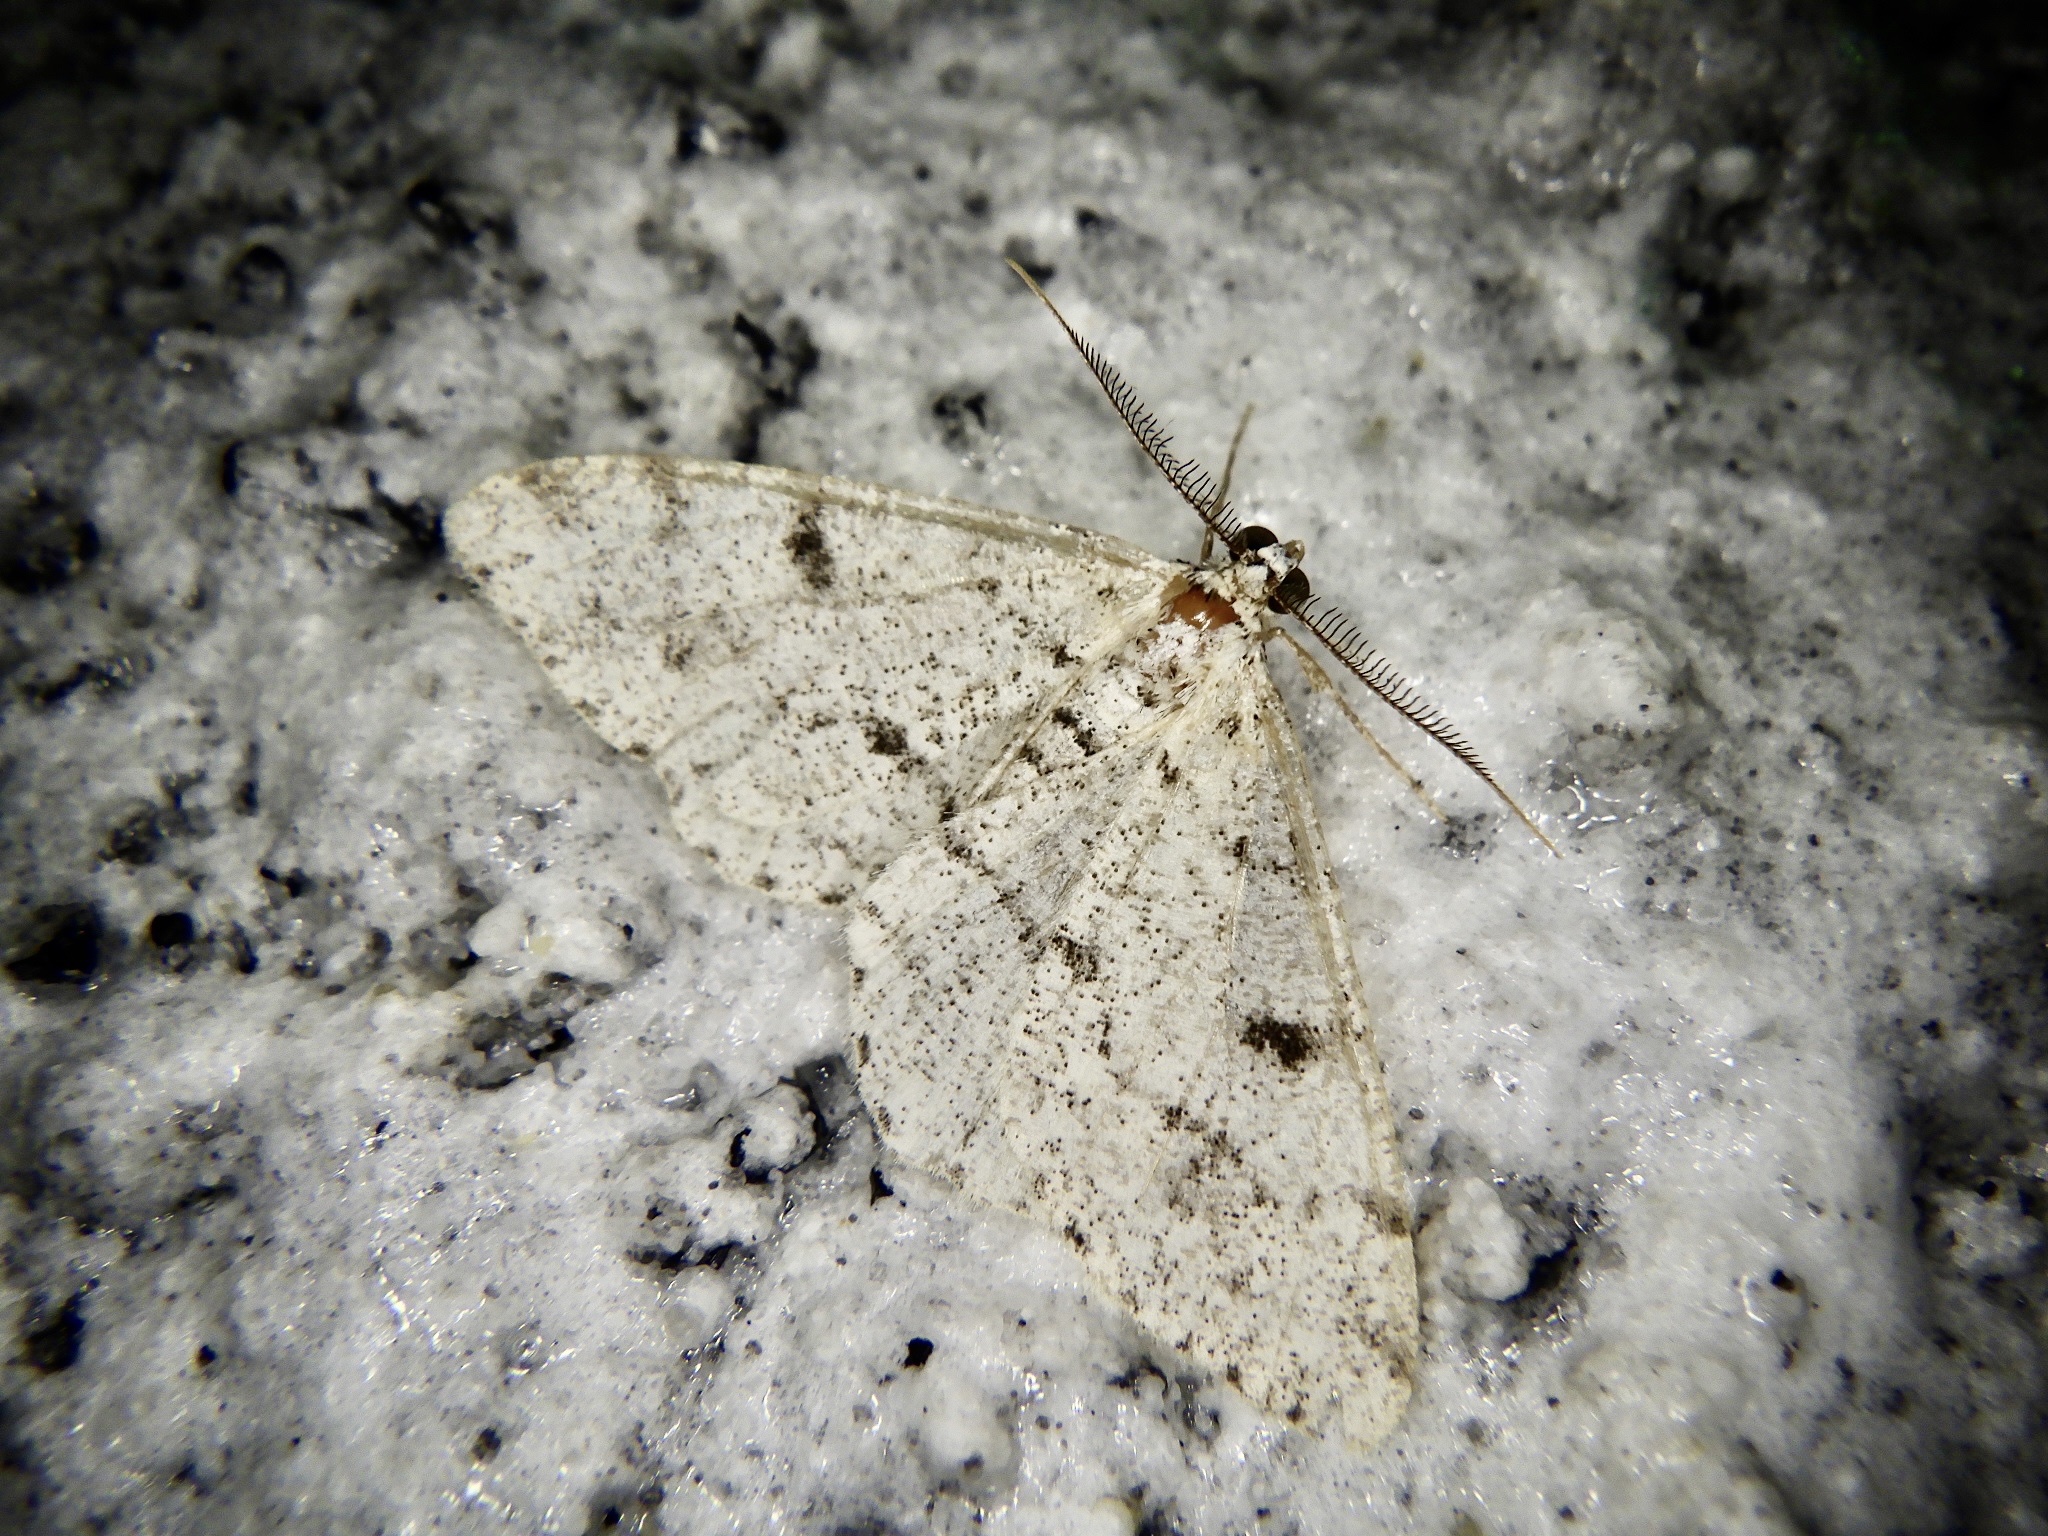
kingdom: Animalia
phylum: Arthropoda
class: Insecta
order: Lepidoptera
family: Geometridae
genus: Alcis
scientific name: Alcis jubata
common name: Dotted carpet
